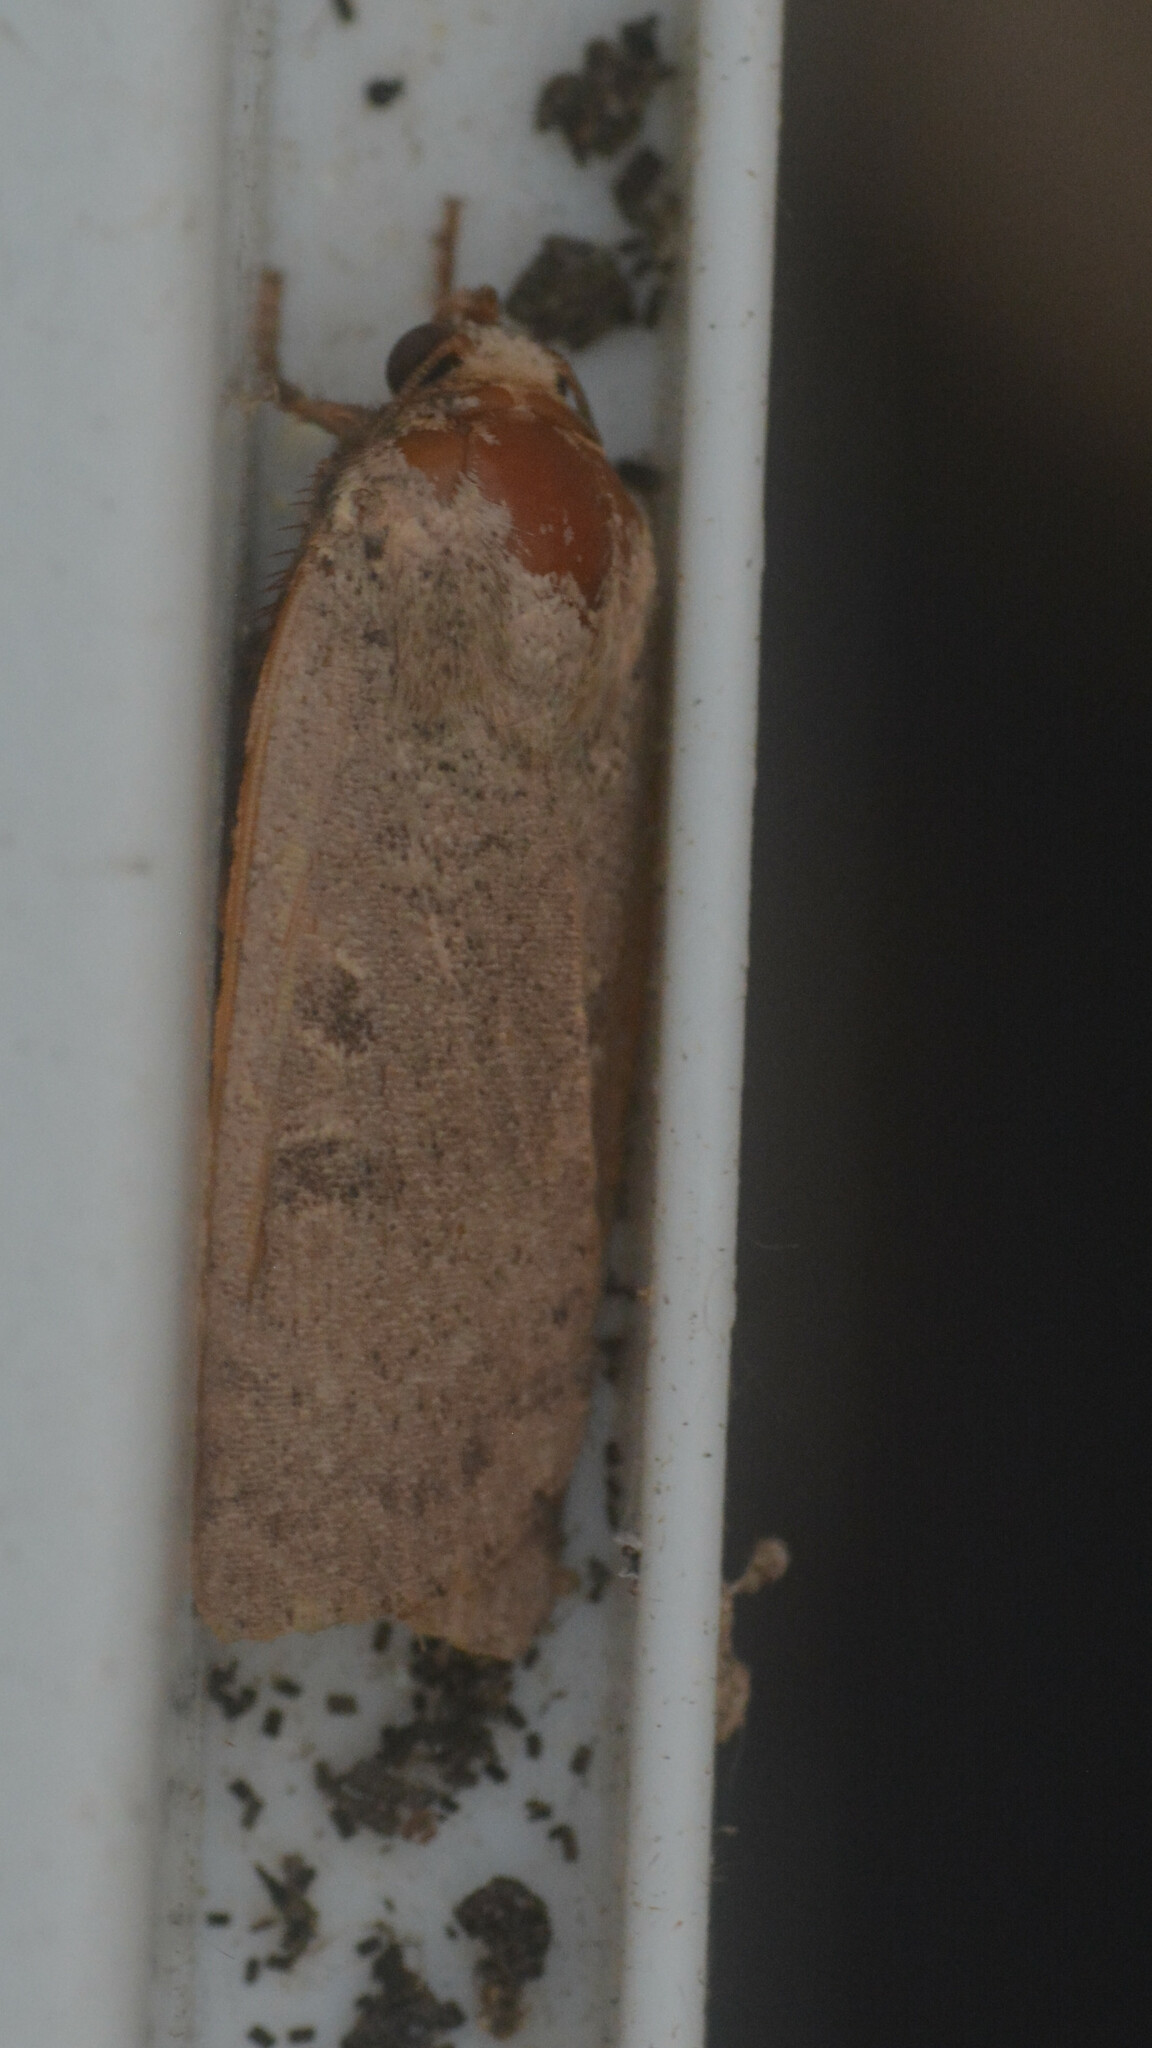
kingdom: Animalia
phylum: Arthropoda
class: Insecta
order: Lepidoptera
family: Noctuidae
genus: Noctua
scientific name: Noctua comes
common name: Lesser yellow underwing
